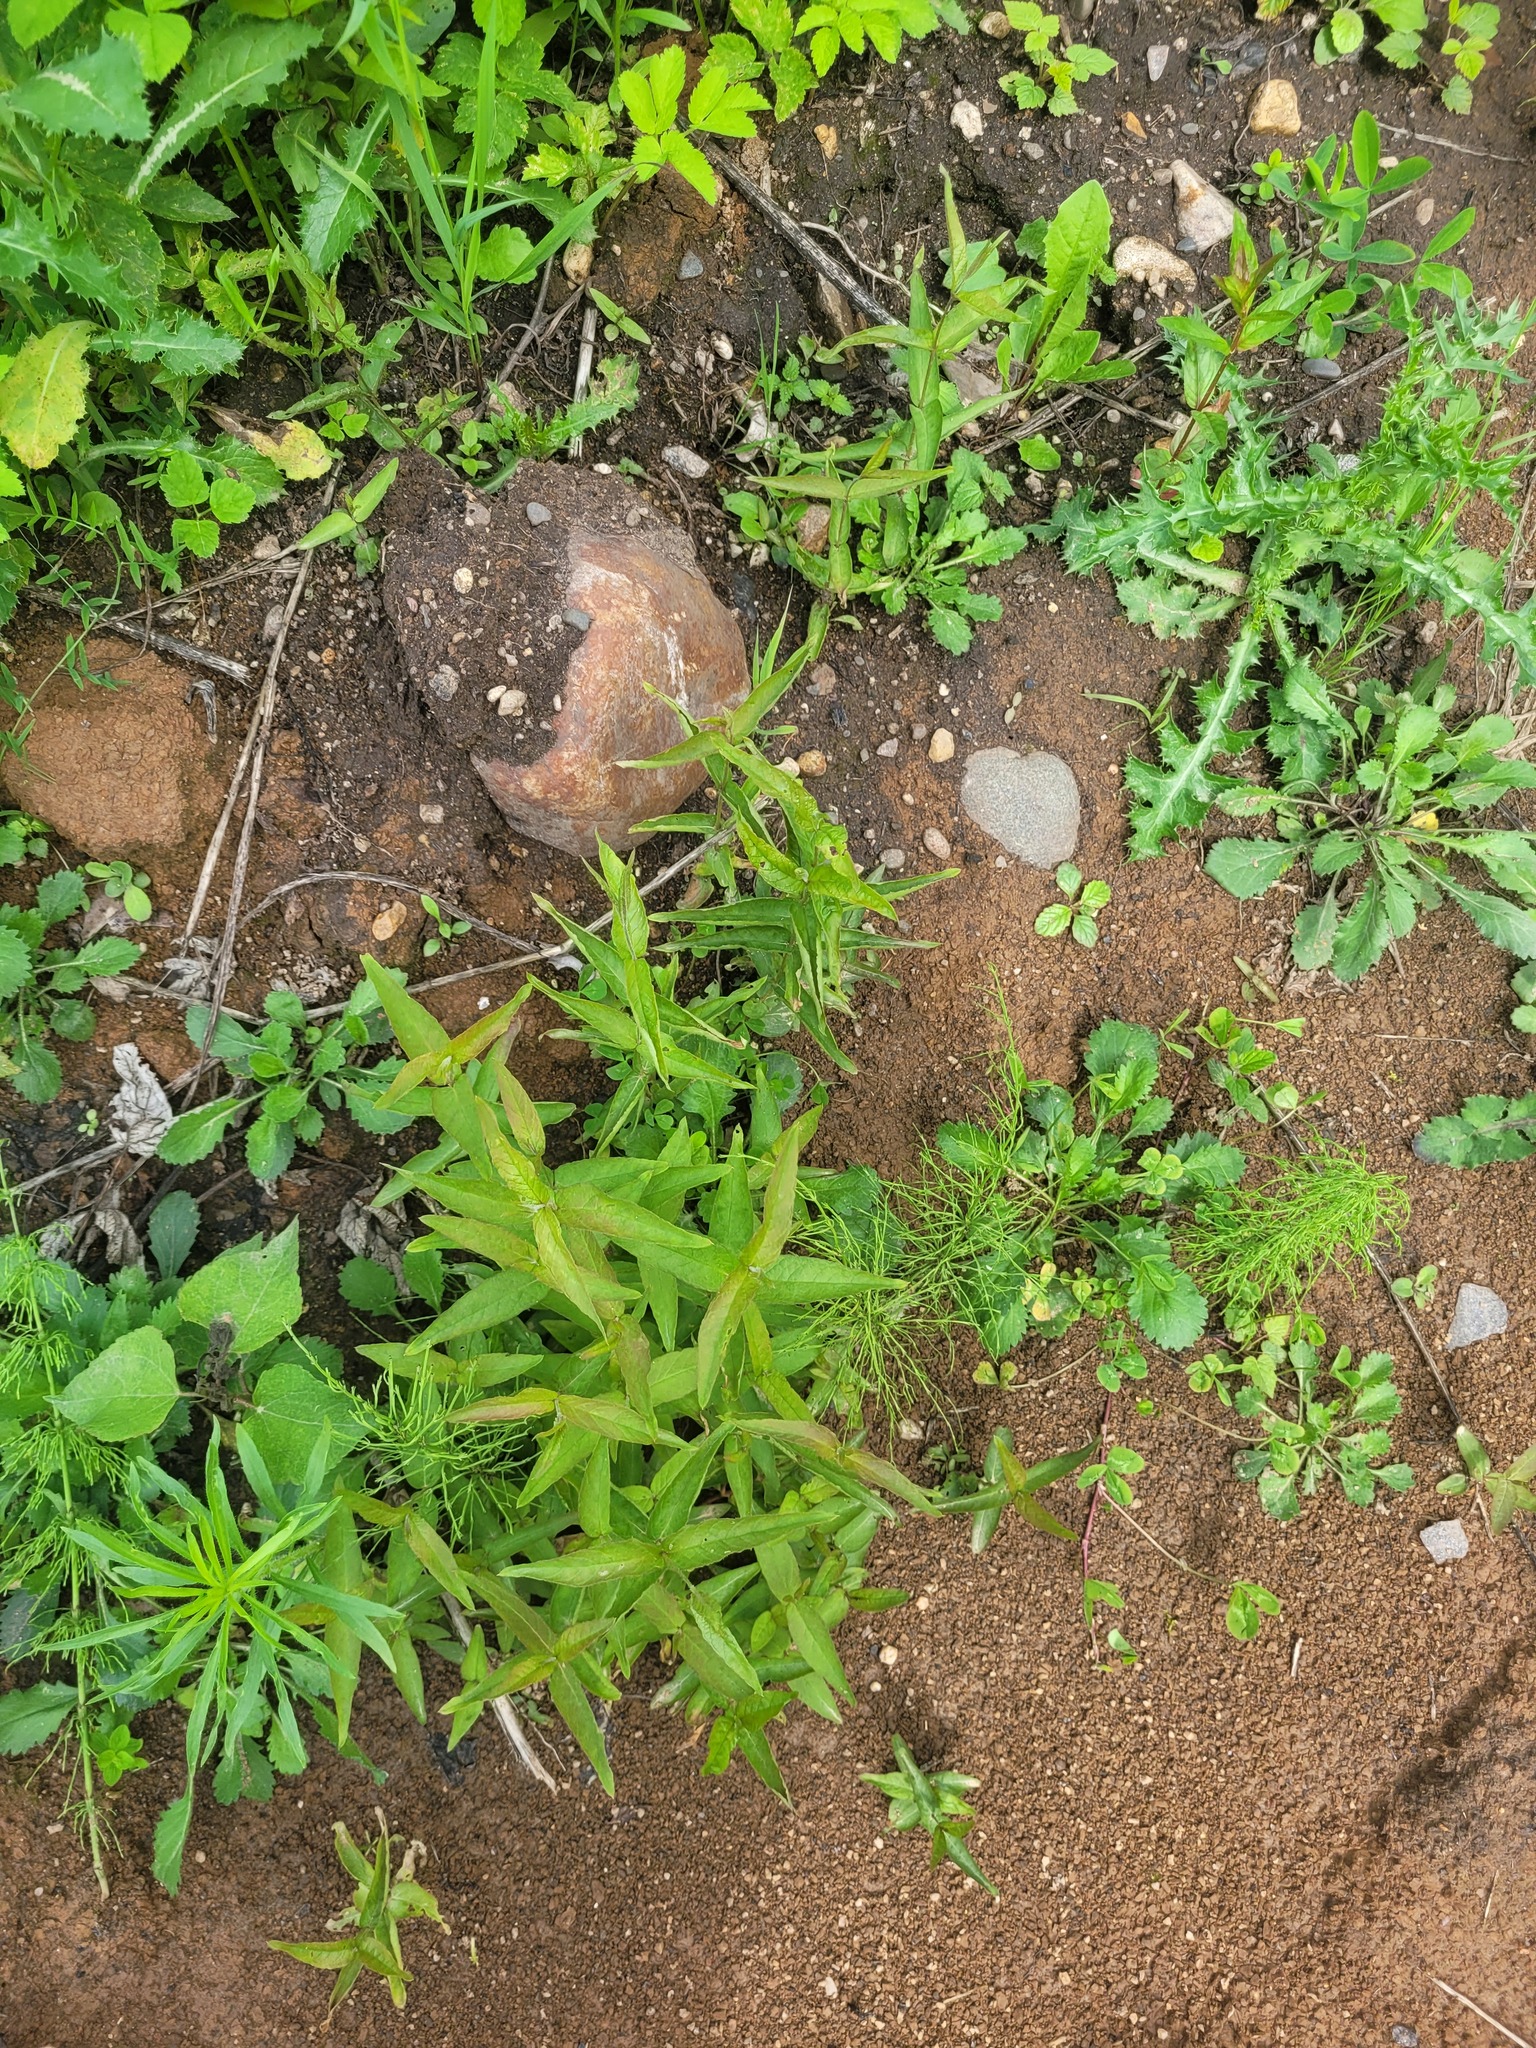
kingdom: Plantae
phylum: Tracheophyta
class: Magnoliopsida
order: Ericales
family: Primulaceae
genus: Lysimachia
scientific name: Lysimachia vulgaris
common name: Yellow loosestrife
